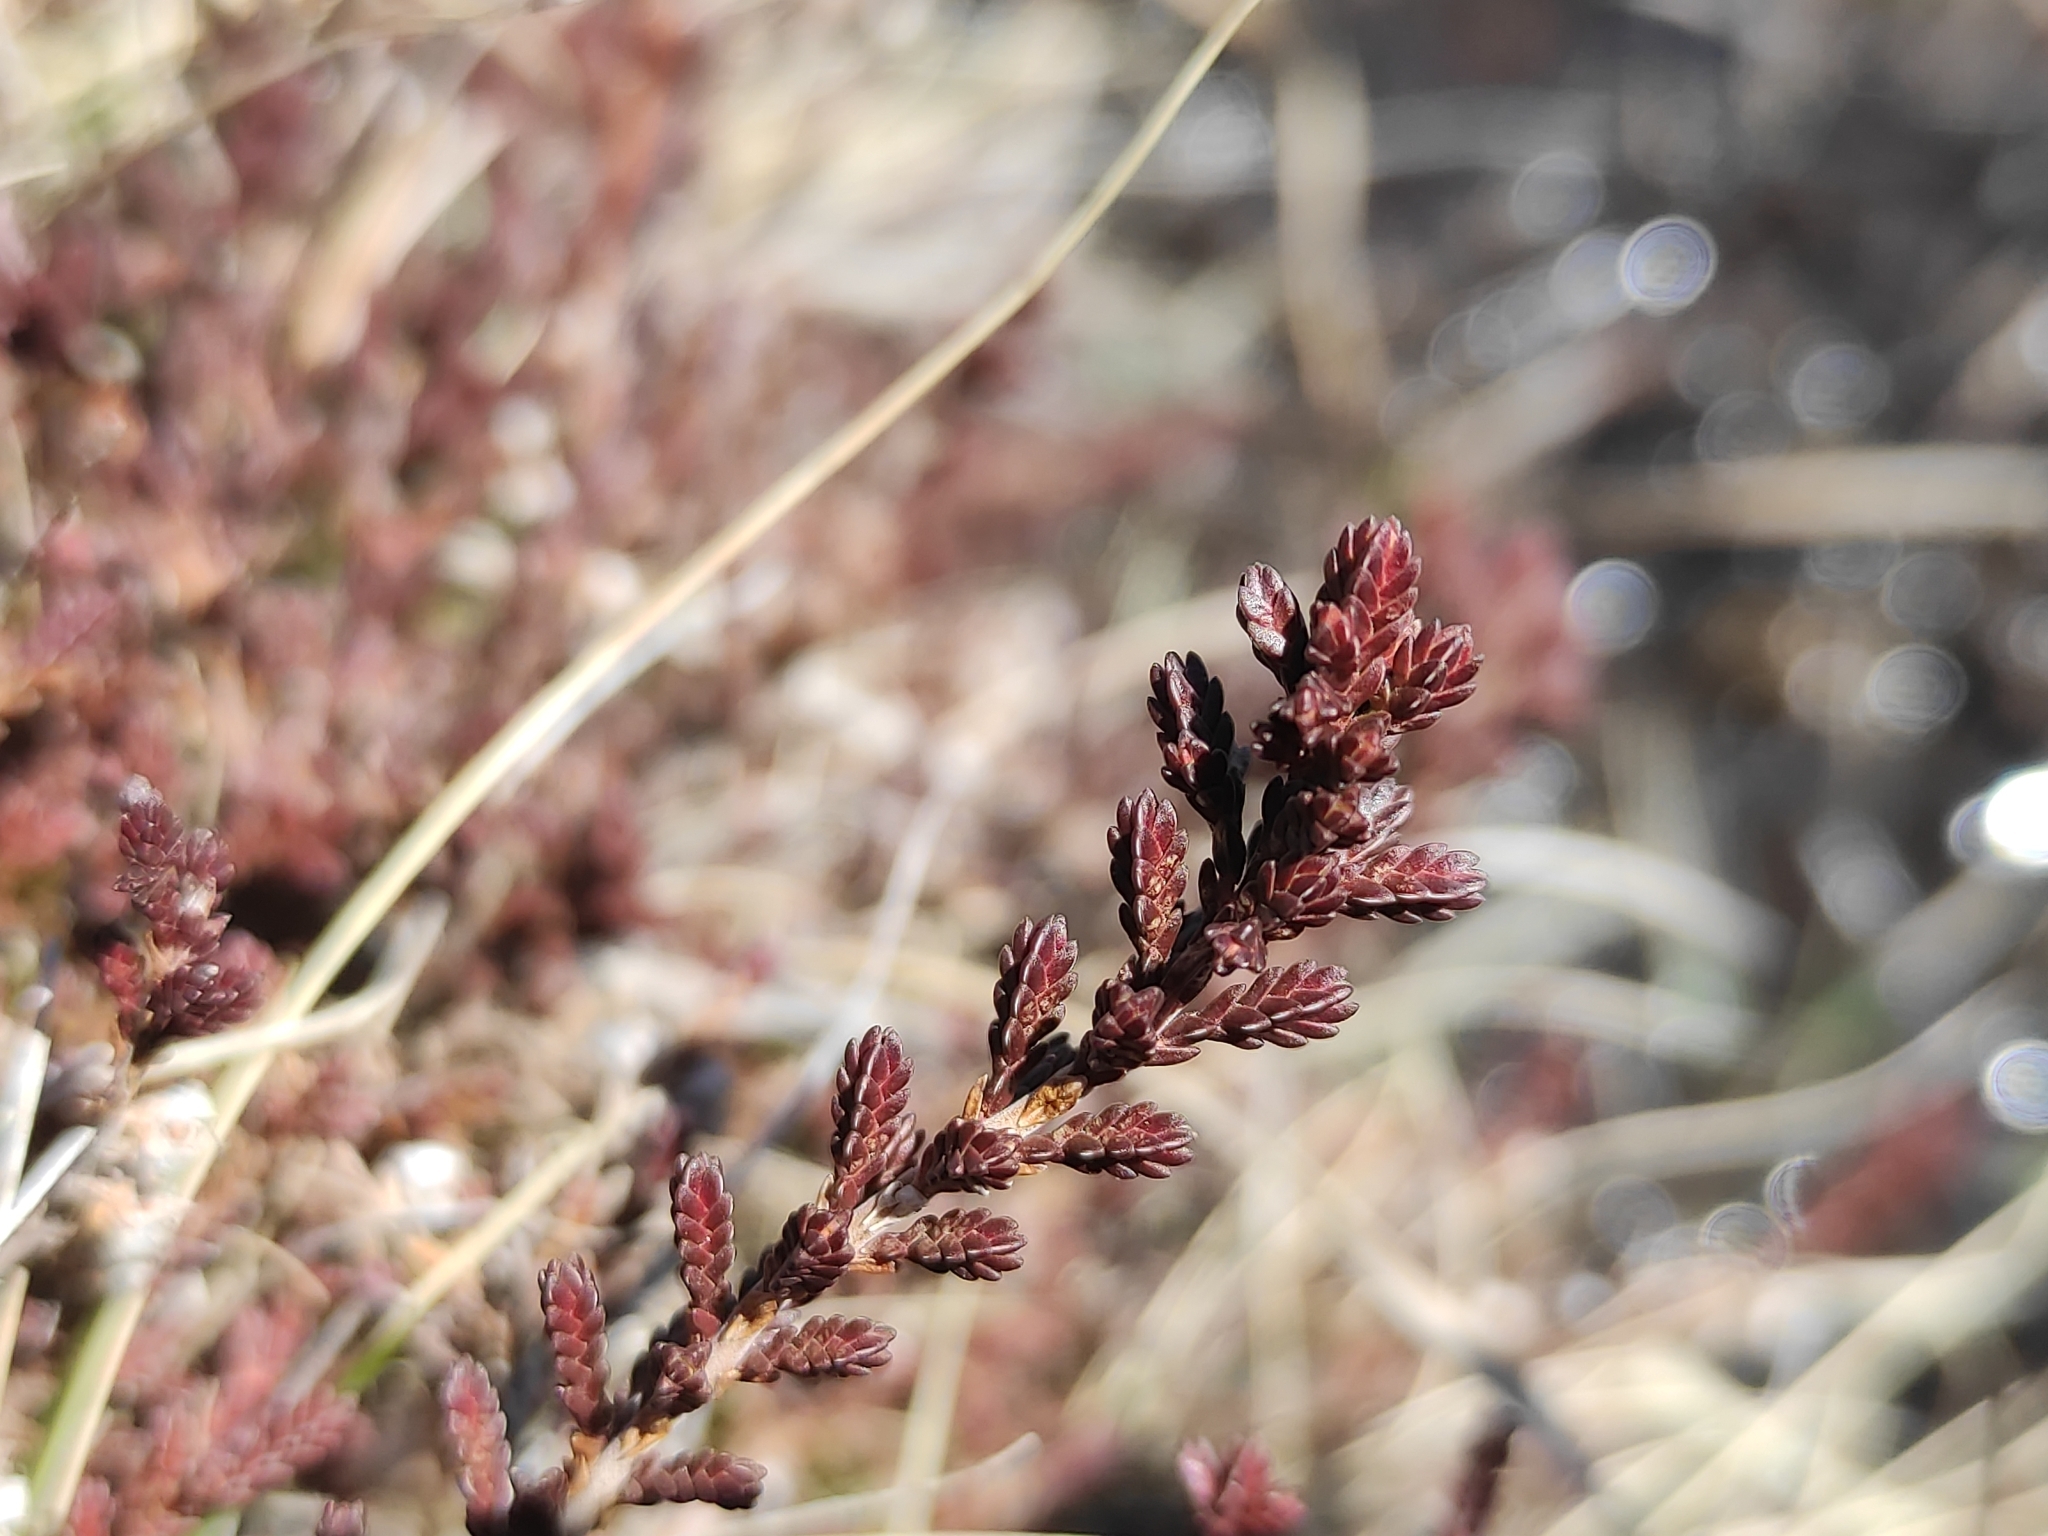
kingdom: Plantae
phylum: Tracheophyta
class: Magnoliopsida
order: Ericales
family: Ericaceae
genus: Calluna
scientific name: Calluna vulgaris
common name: Heather
